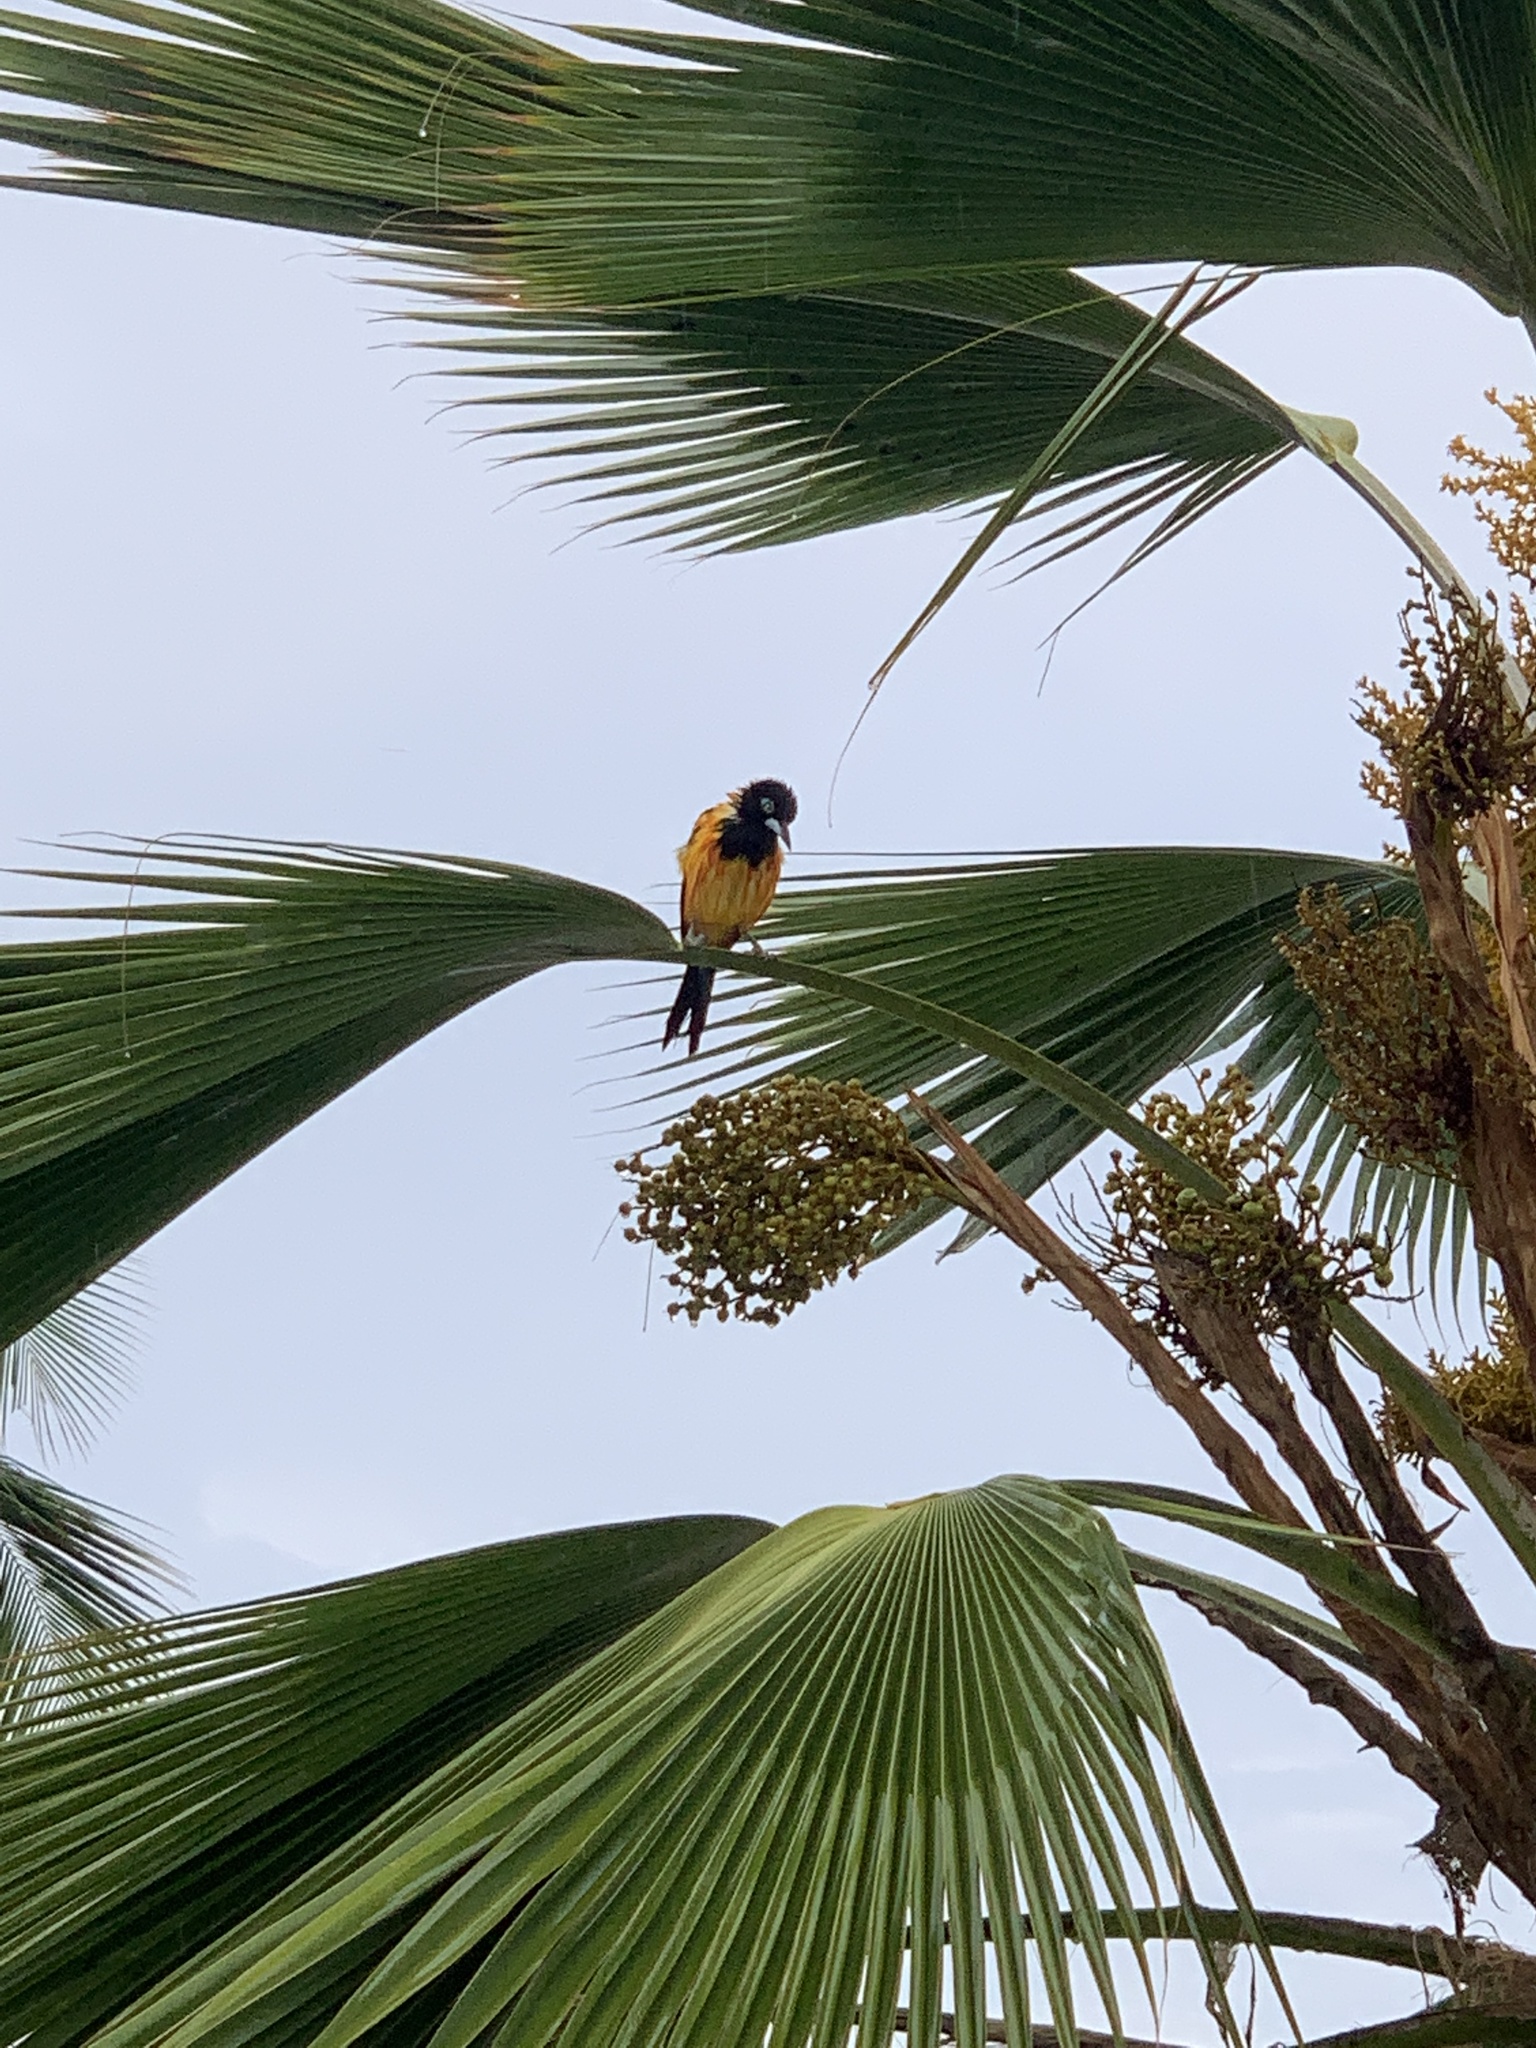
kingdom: Animalia
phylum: Chordata
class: Aves
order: Passeriformes
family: Icteridae
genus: Icterus
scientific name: Icterus icterus
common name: Venezuelan troupial
